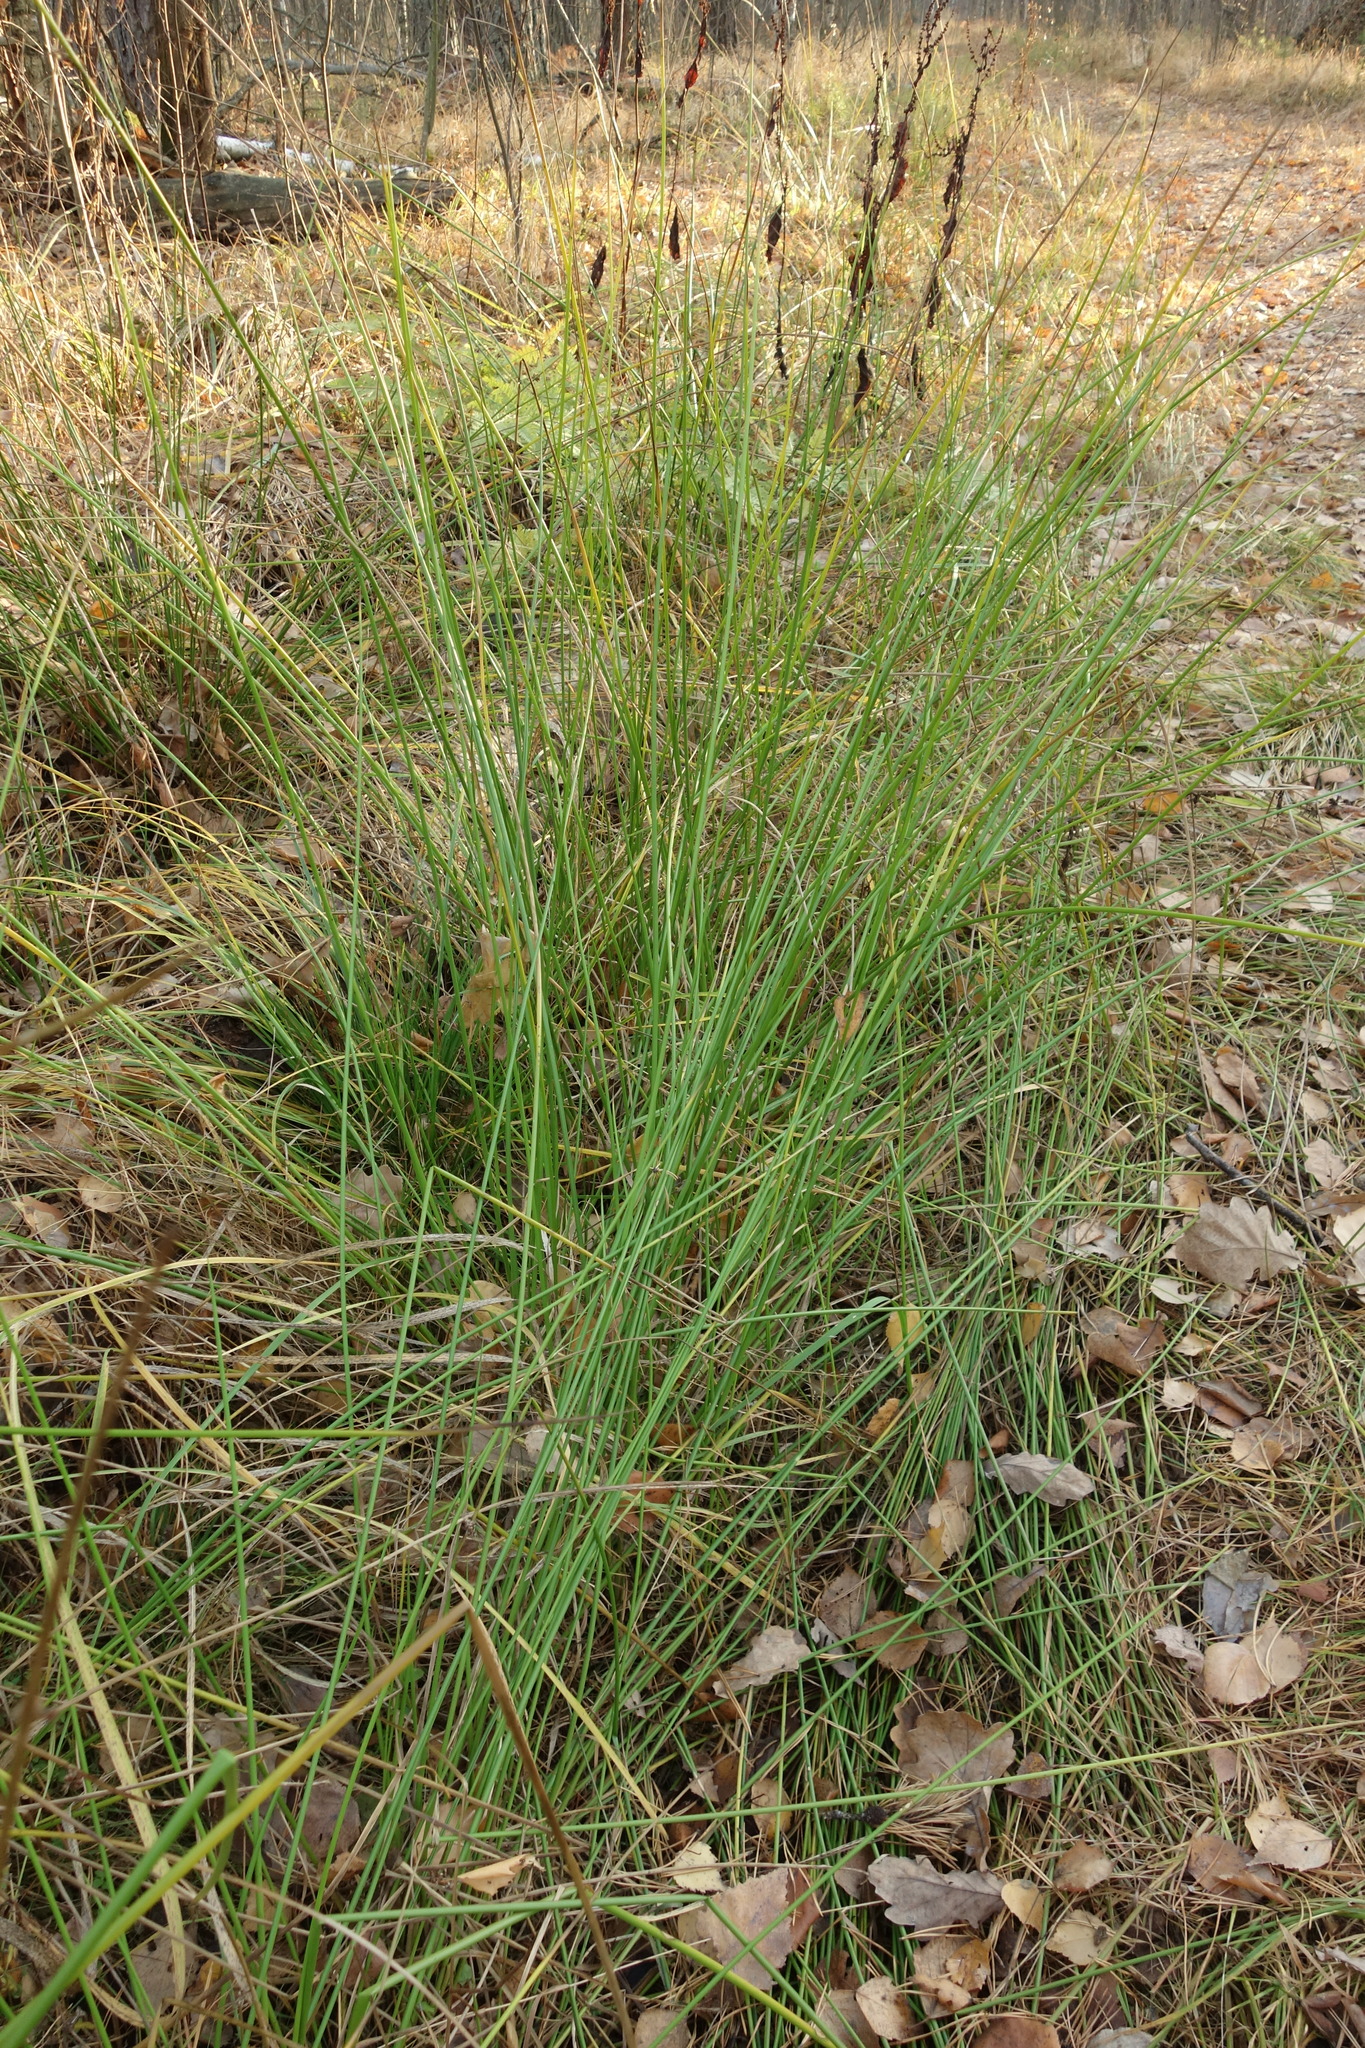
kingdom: Plantae
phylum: Tracheophyta
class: Liliopsida
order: Poales
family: Juncaceae
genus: Juncus
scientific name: Juncus effusus
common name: Soft rush
